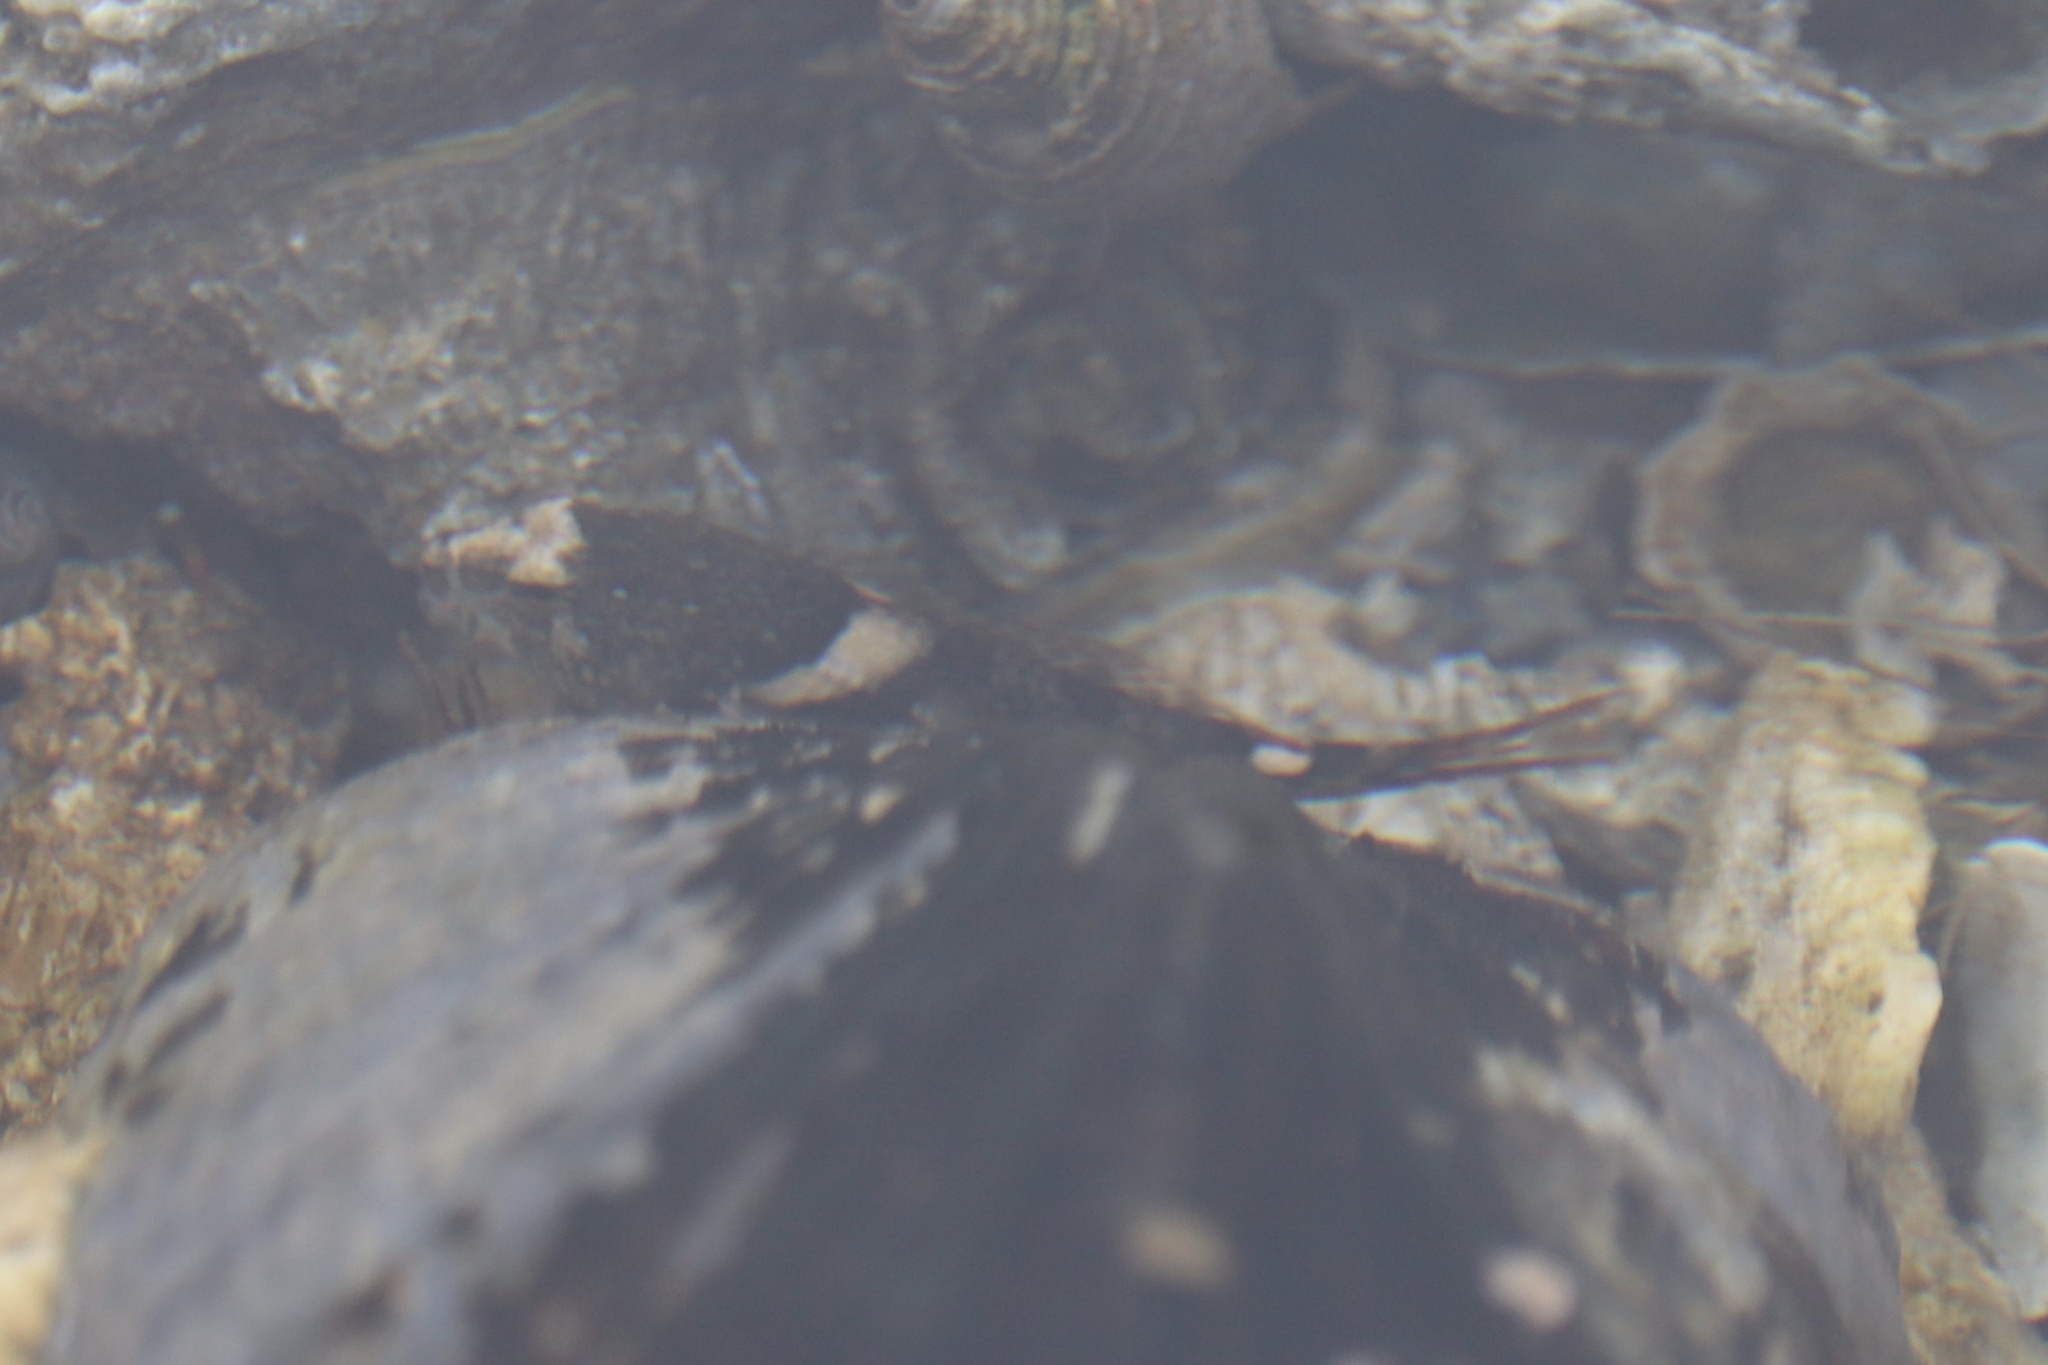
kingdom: Animalia
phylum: Chordata
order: Scorpaeniformes
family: Cottidae
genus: Oligocottus
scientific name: Oligocottus maculosus
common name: Tidepool sculpin
